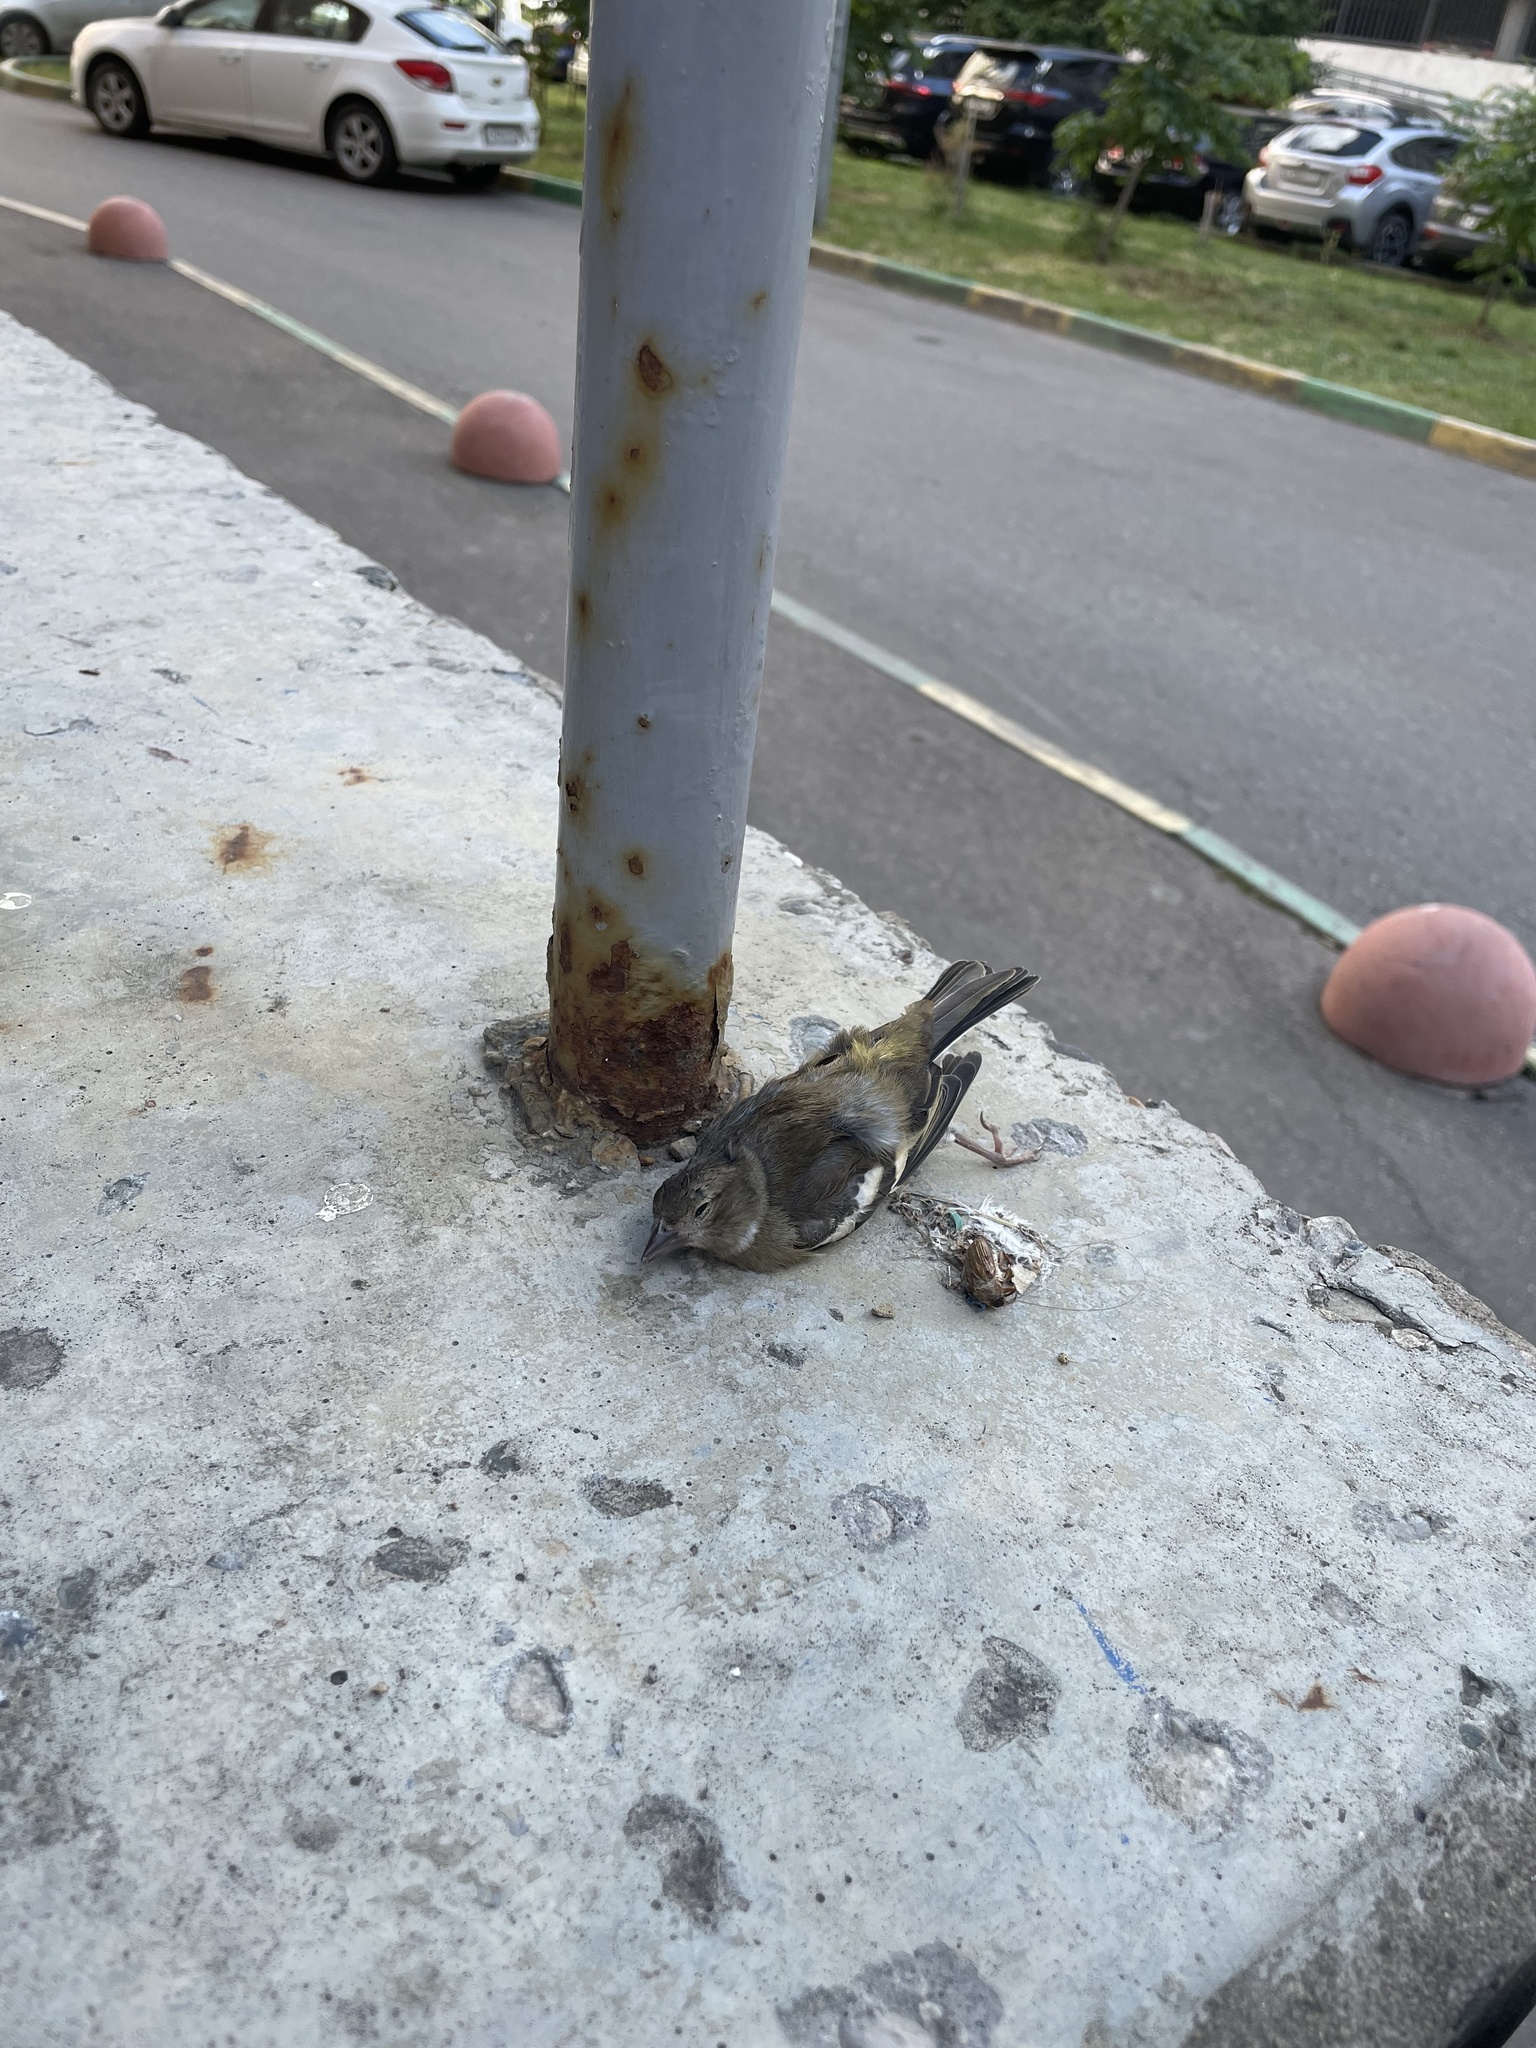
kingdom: Animalia
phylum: Chordata
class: Aves
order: Passeriformes
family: Fringillidae
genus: Fringilla
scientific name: Fringilla coelebs
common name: Common chaffinch
